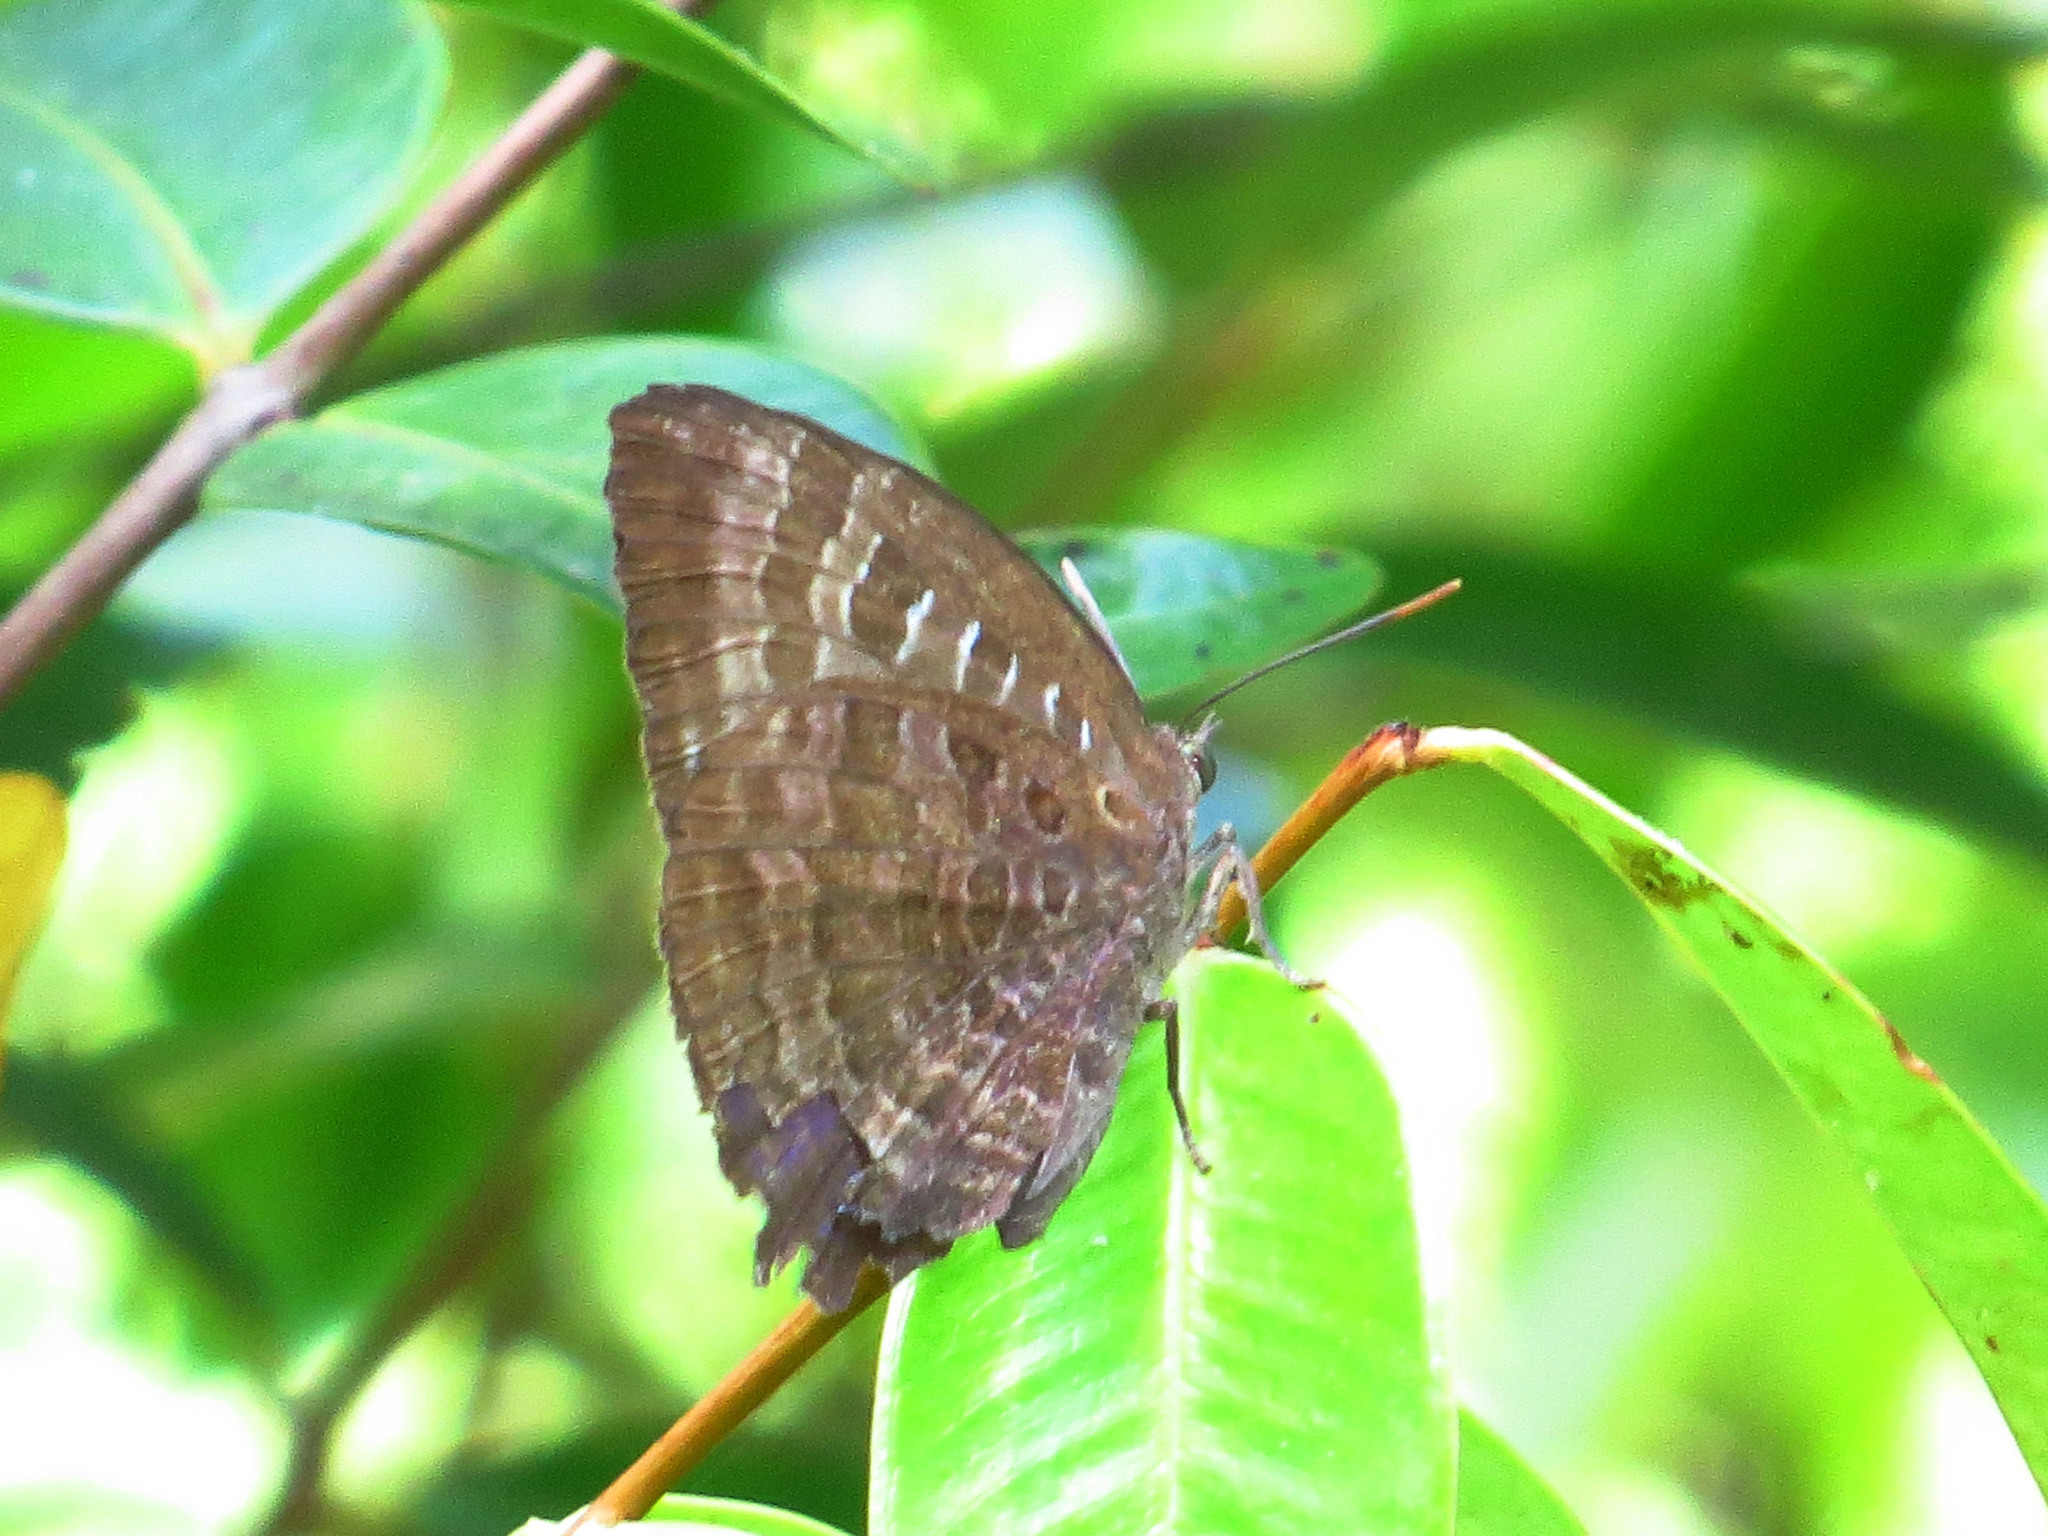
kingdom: Animalia
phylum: Arthropoda
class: Insecta
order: Lepidoptera
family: Lycaenidae
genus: Arhopala
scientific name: Arhopala centaurus
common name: Dull oak-blue
